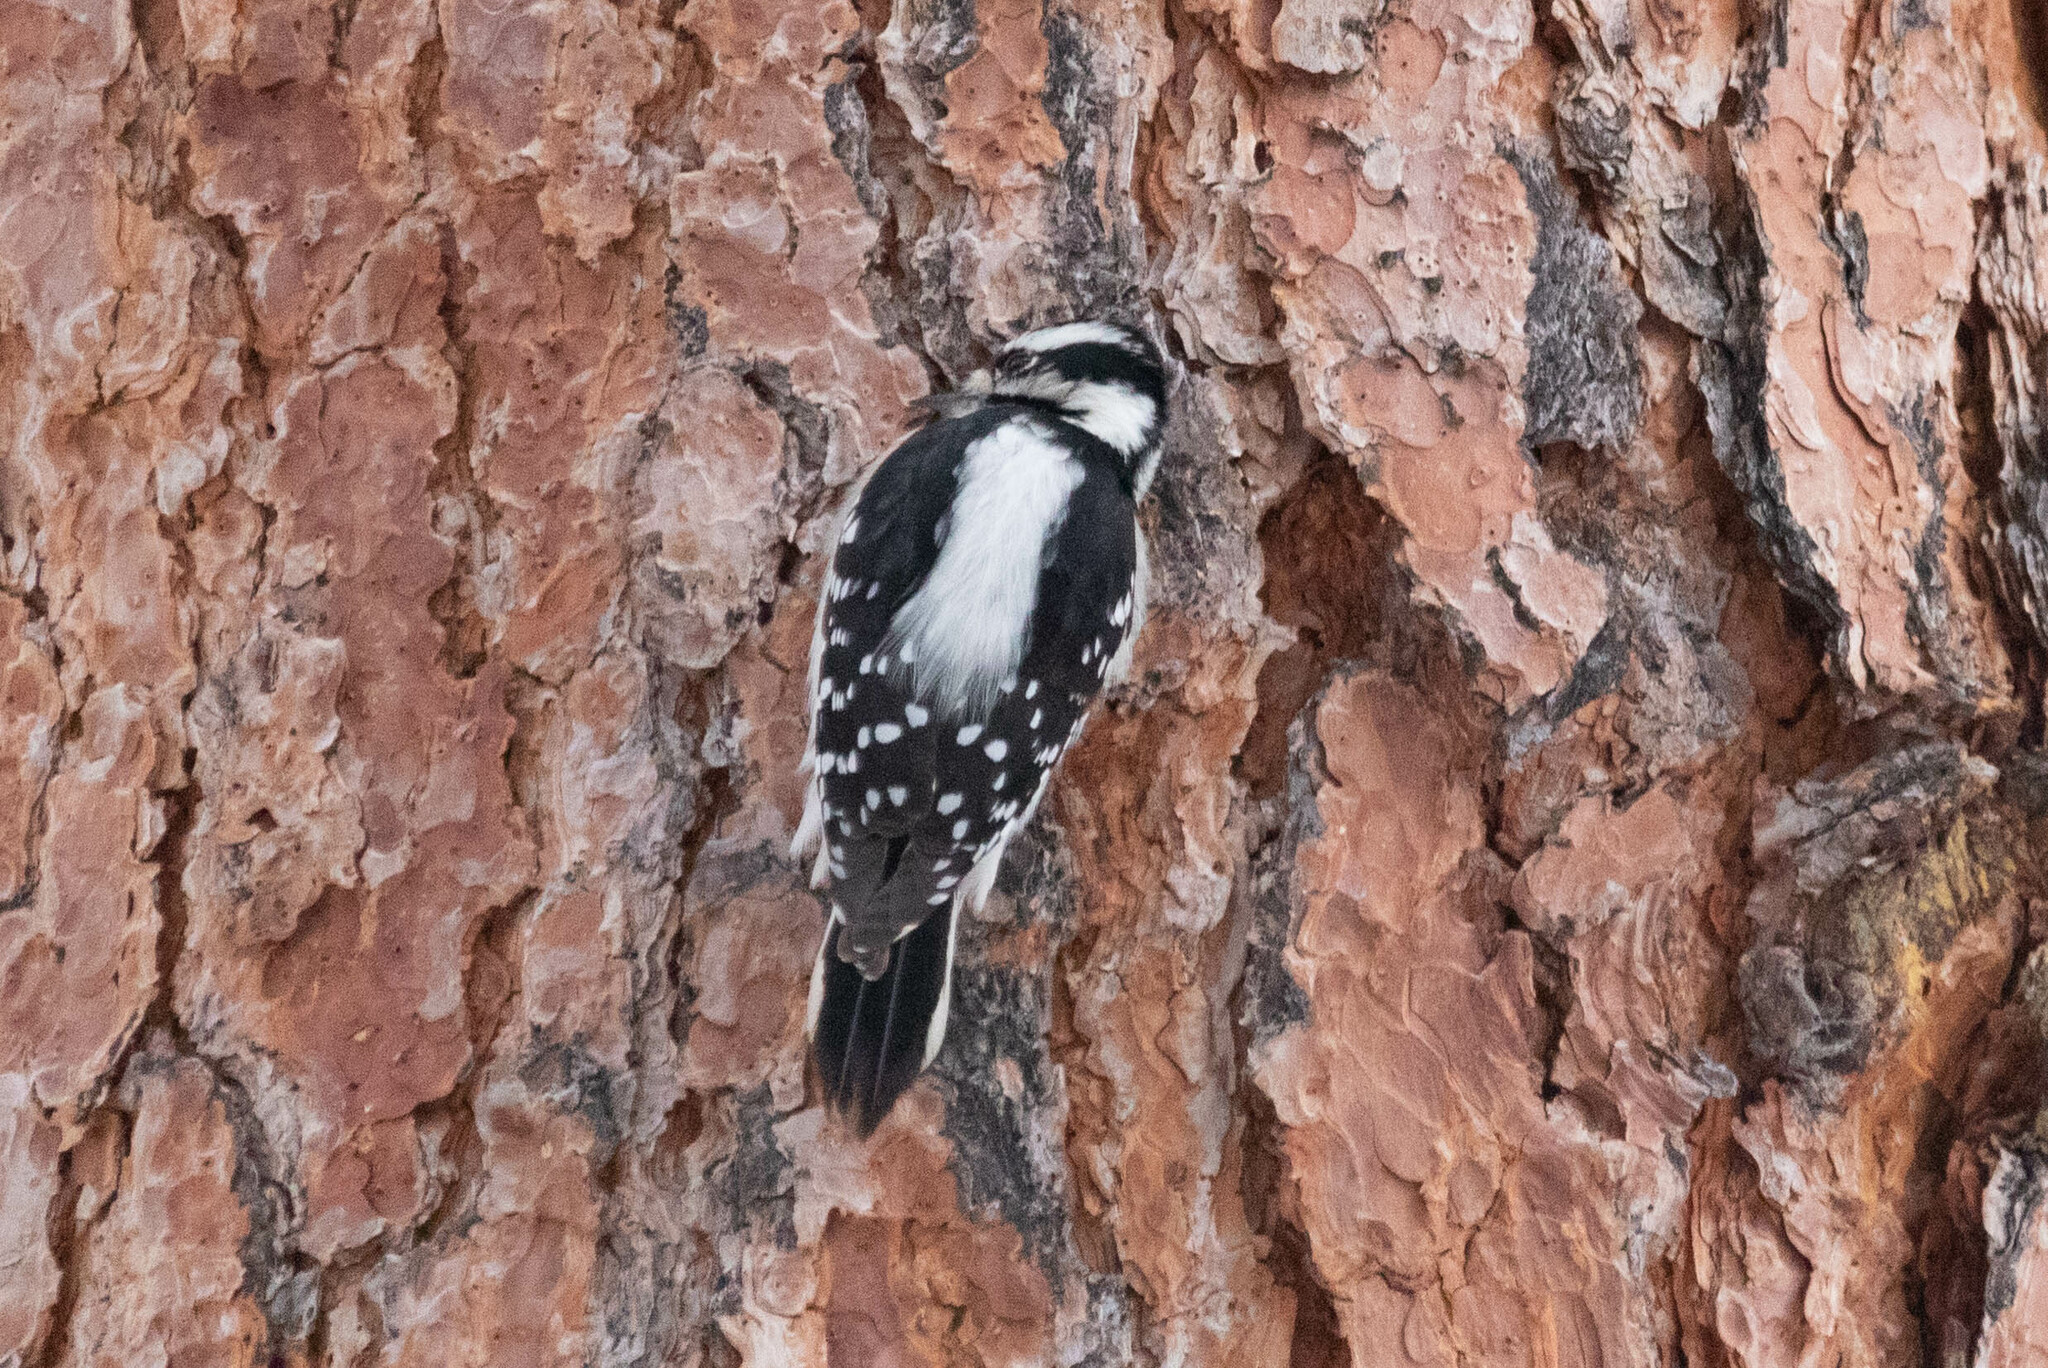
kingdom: Animalia
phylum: Chordata
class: Aves
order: Piciformes
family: Picidae
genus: Dryobates
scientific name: Dryobates pubescens
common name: Downy woodpecker
